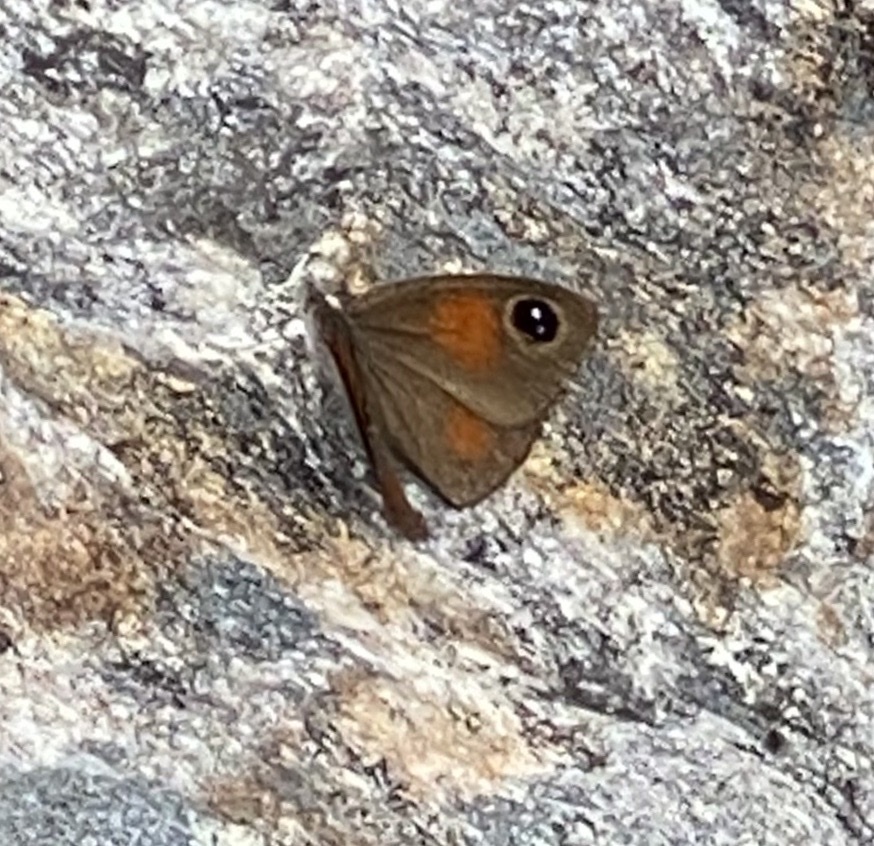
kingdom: Animalia
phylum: Arthropoda
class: Insecta
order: Lepidoptera
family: Nymphalidae
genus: Stygionympha
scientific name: Stygionympha vigilans
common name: Western hillside brown
